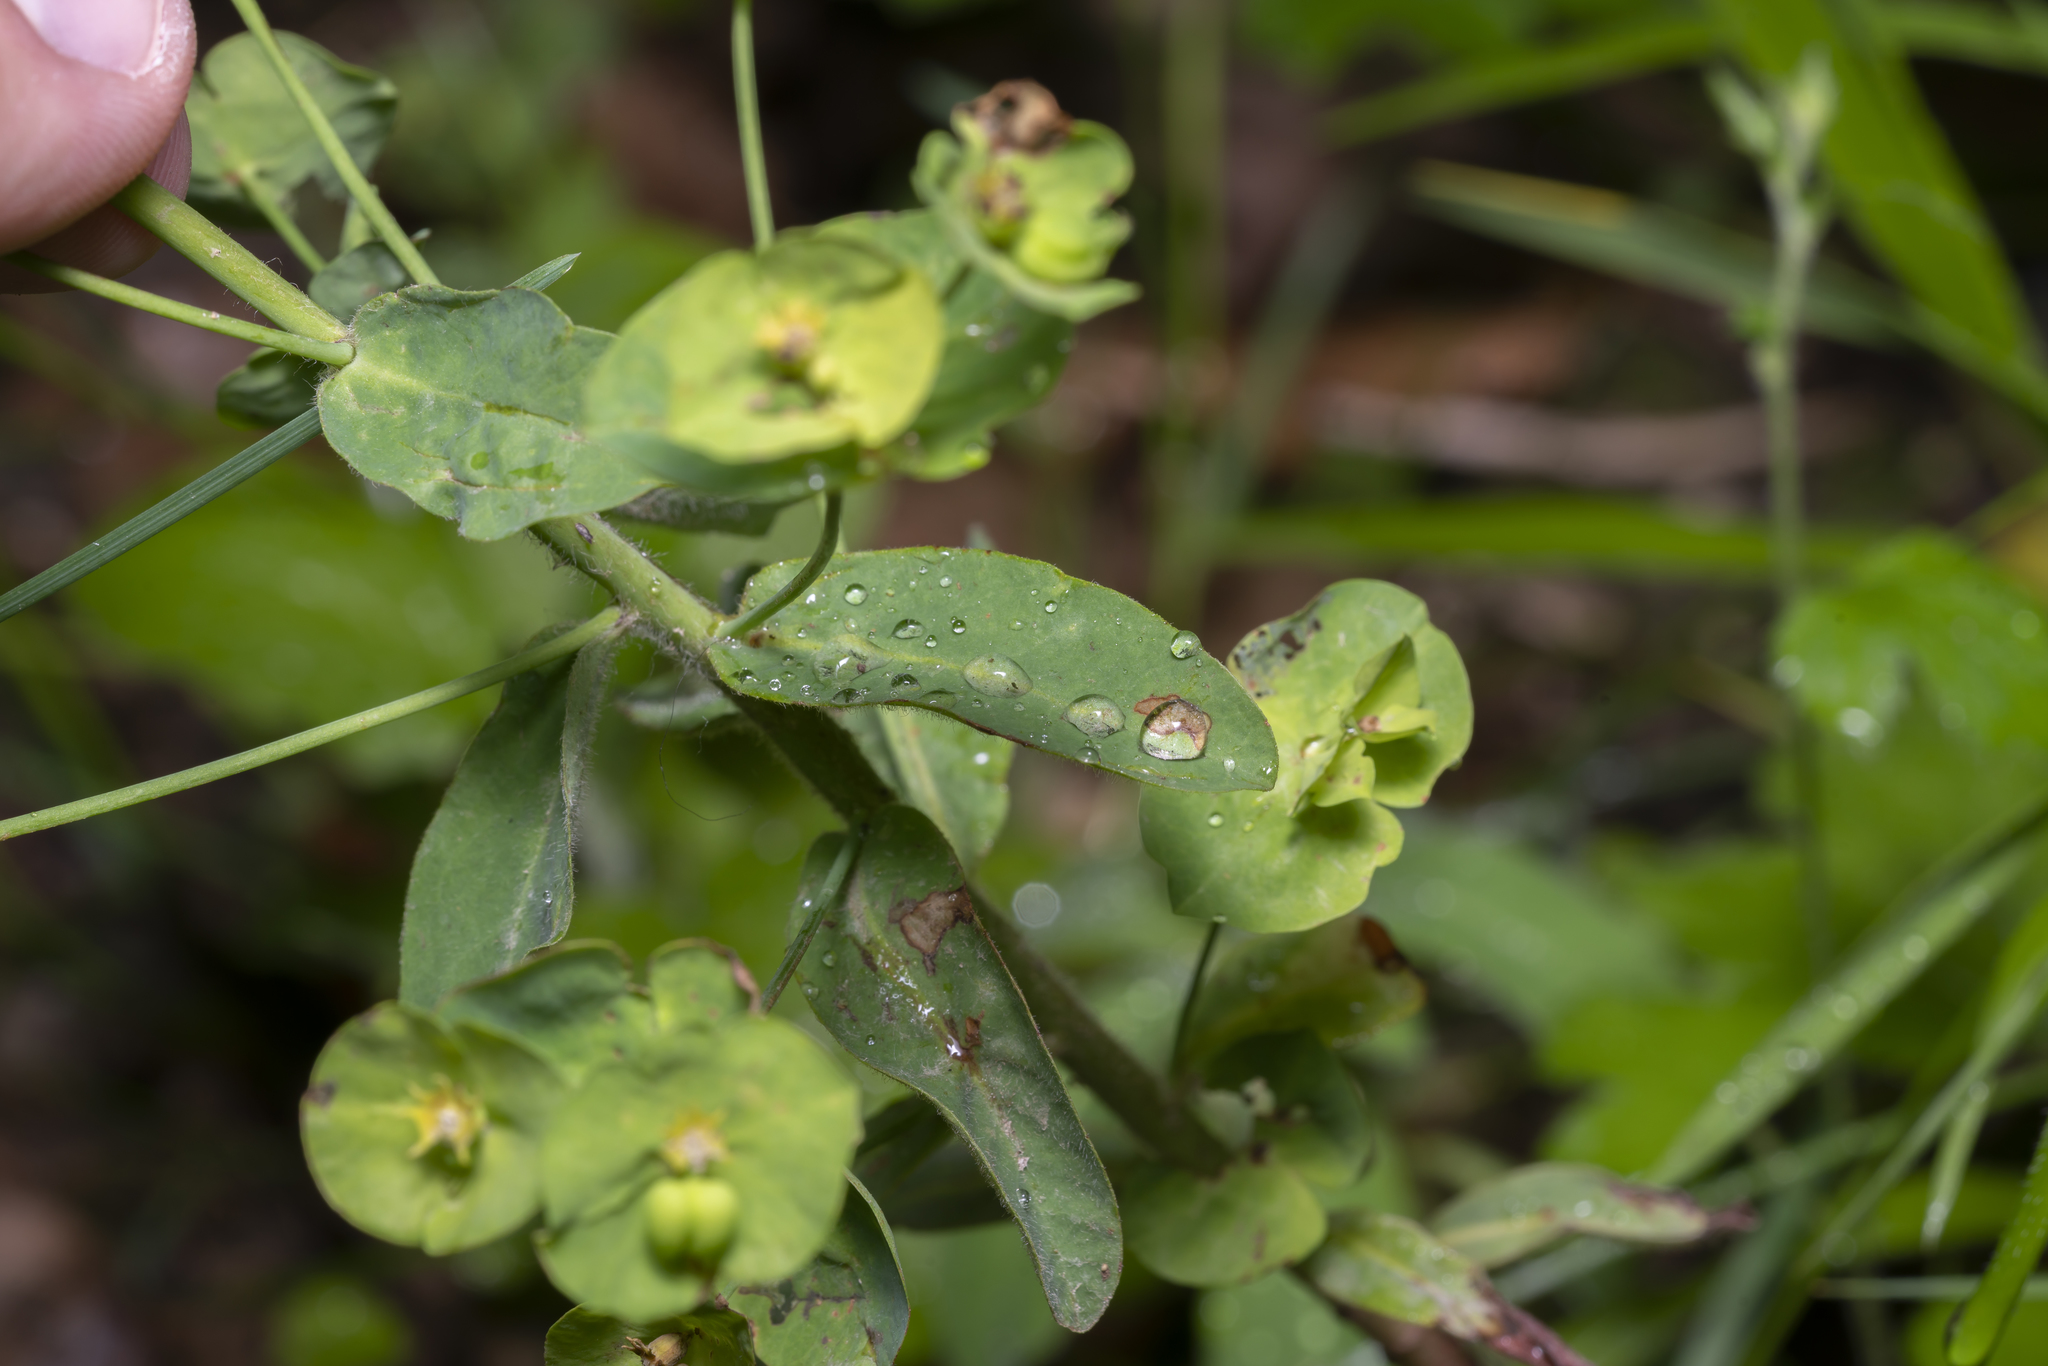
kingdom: Plantae
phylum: Tracheophyta
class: Magnoliopsida
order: Malpighiales
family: Euphorbiaceae
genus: Euphorbia
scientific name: Euphorbia amygdaloides
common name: Wood spurge
